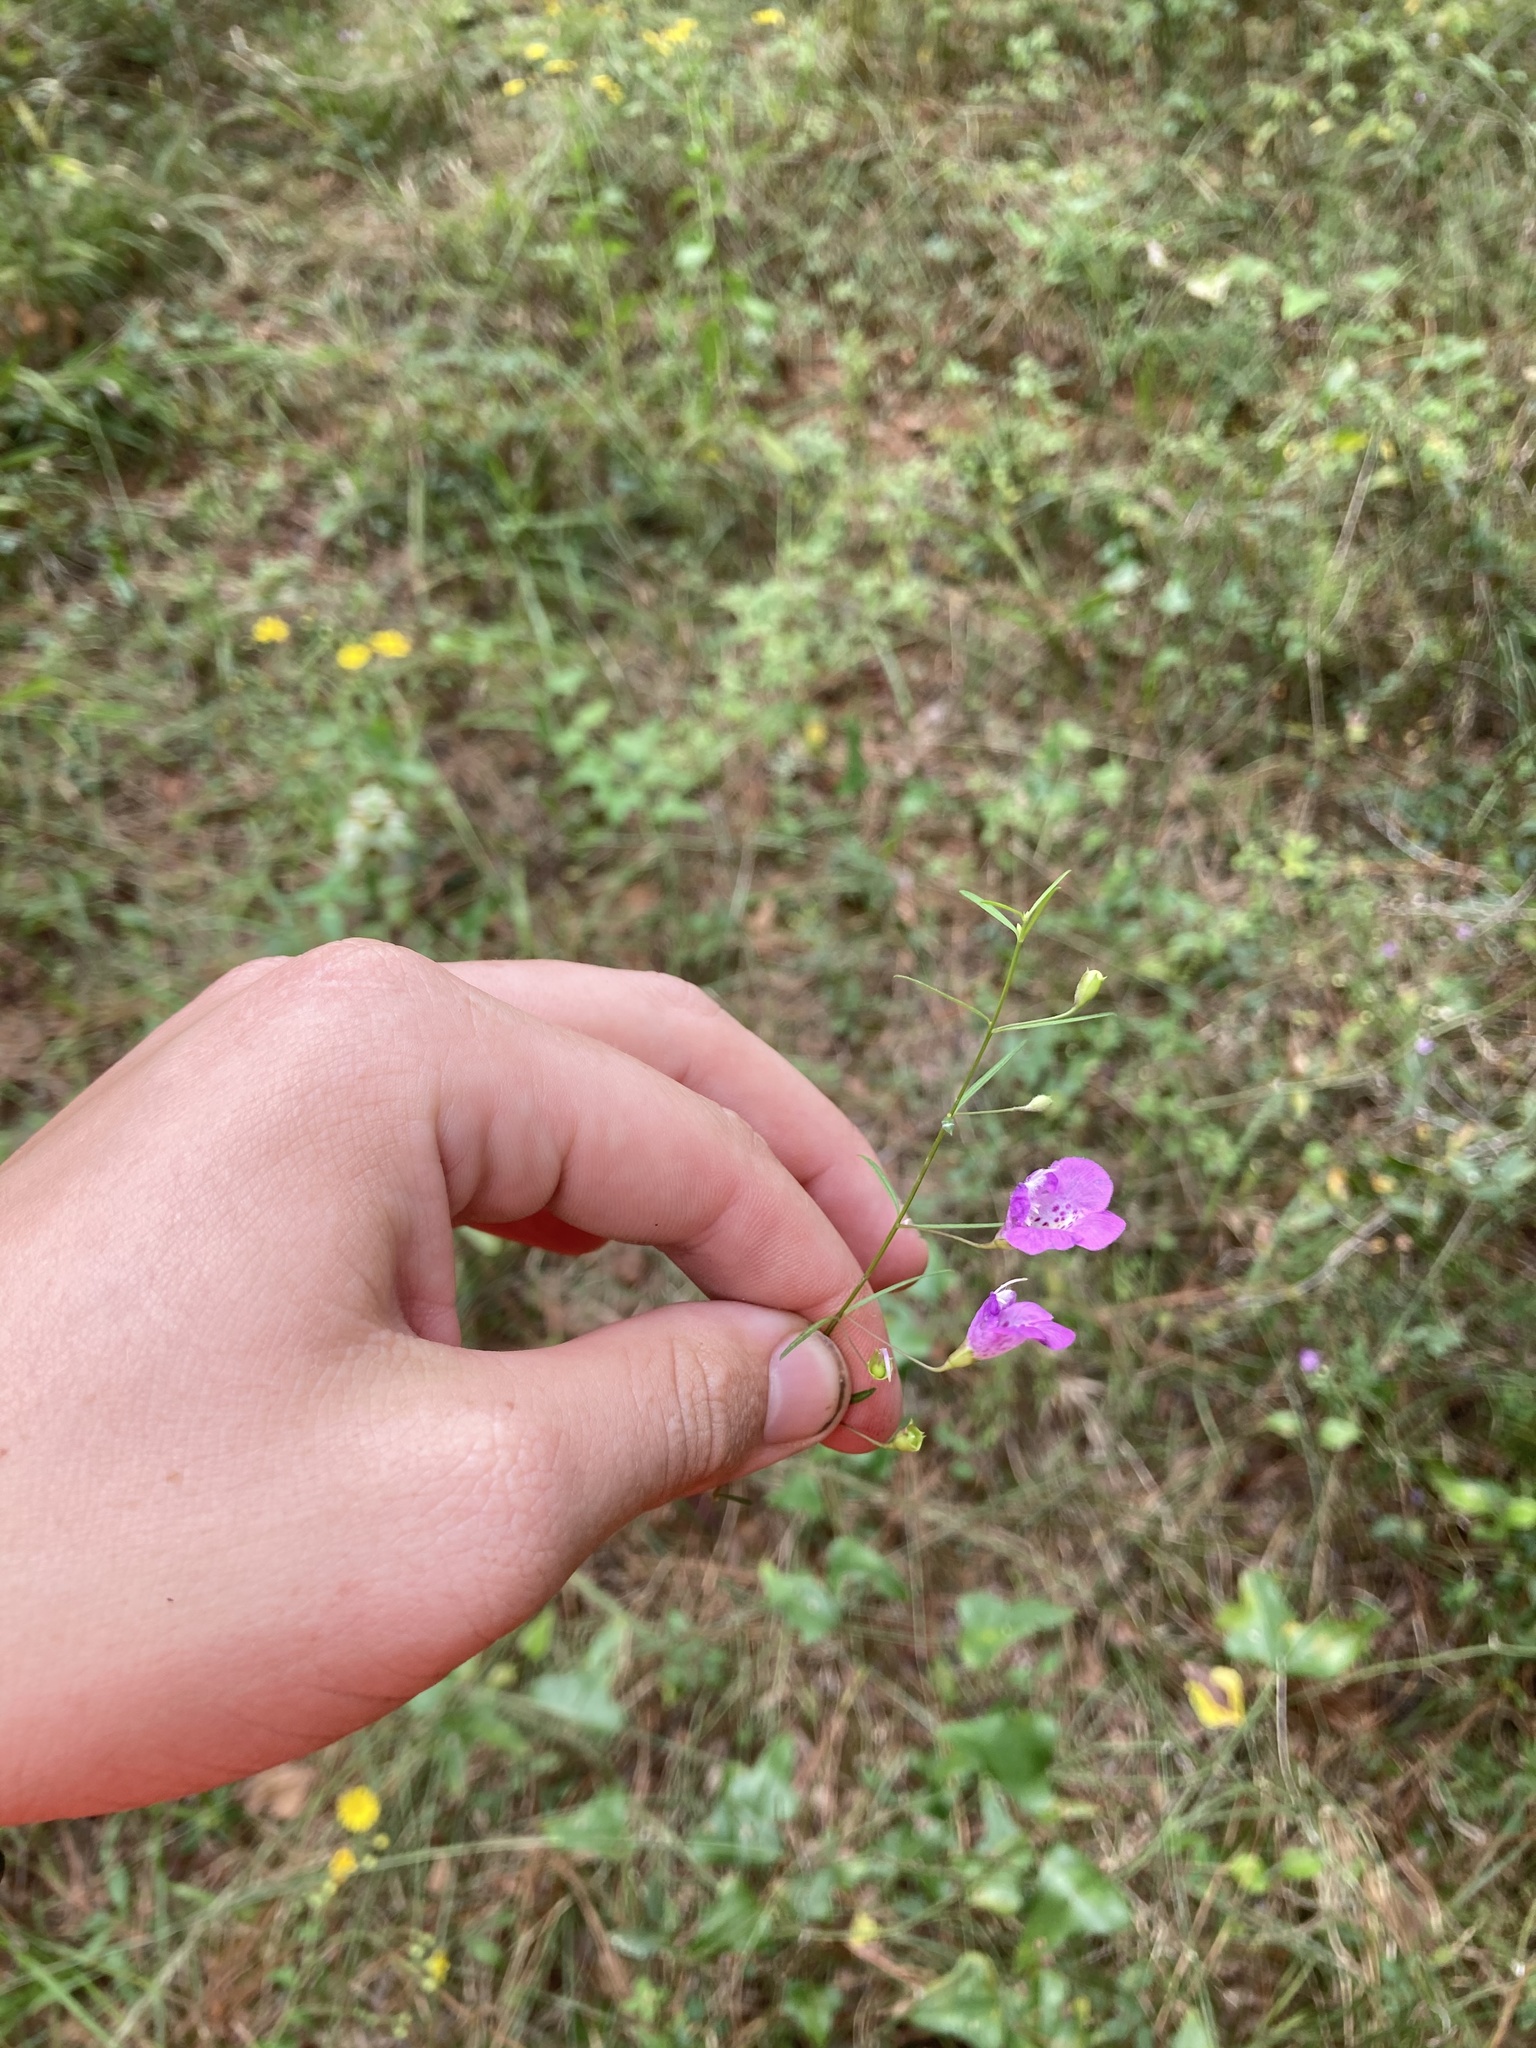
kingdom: Plantae
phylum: Tracheophyta
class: Magnoliopsida
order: Lamiales
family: Orobanchaceae
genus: Agalinis
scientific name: Agalinis tenuifolia
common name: Slender agalinis
